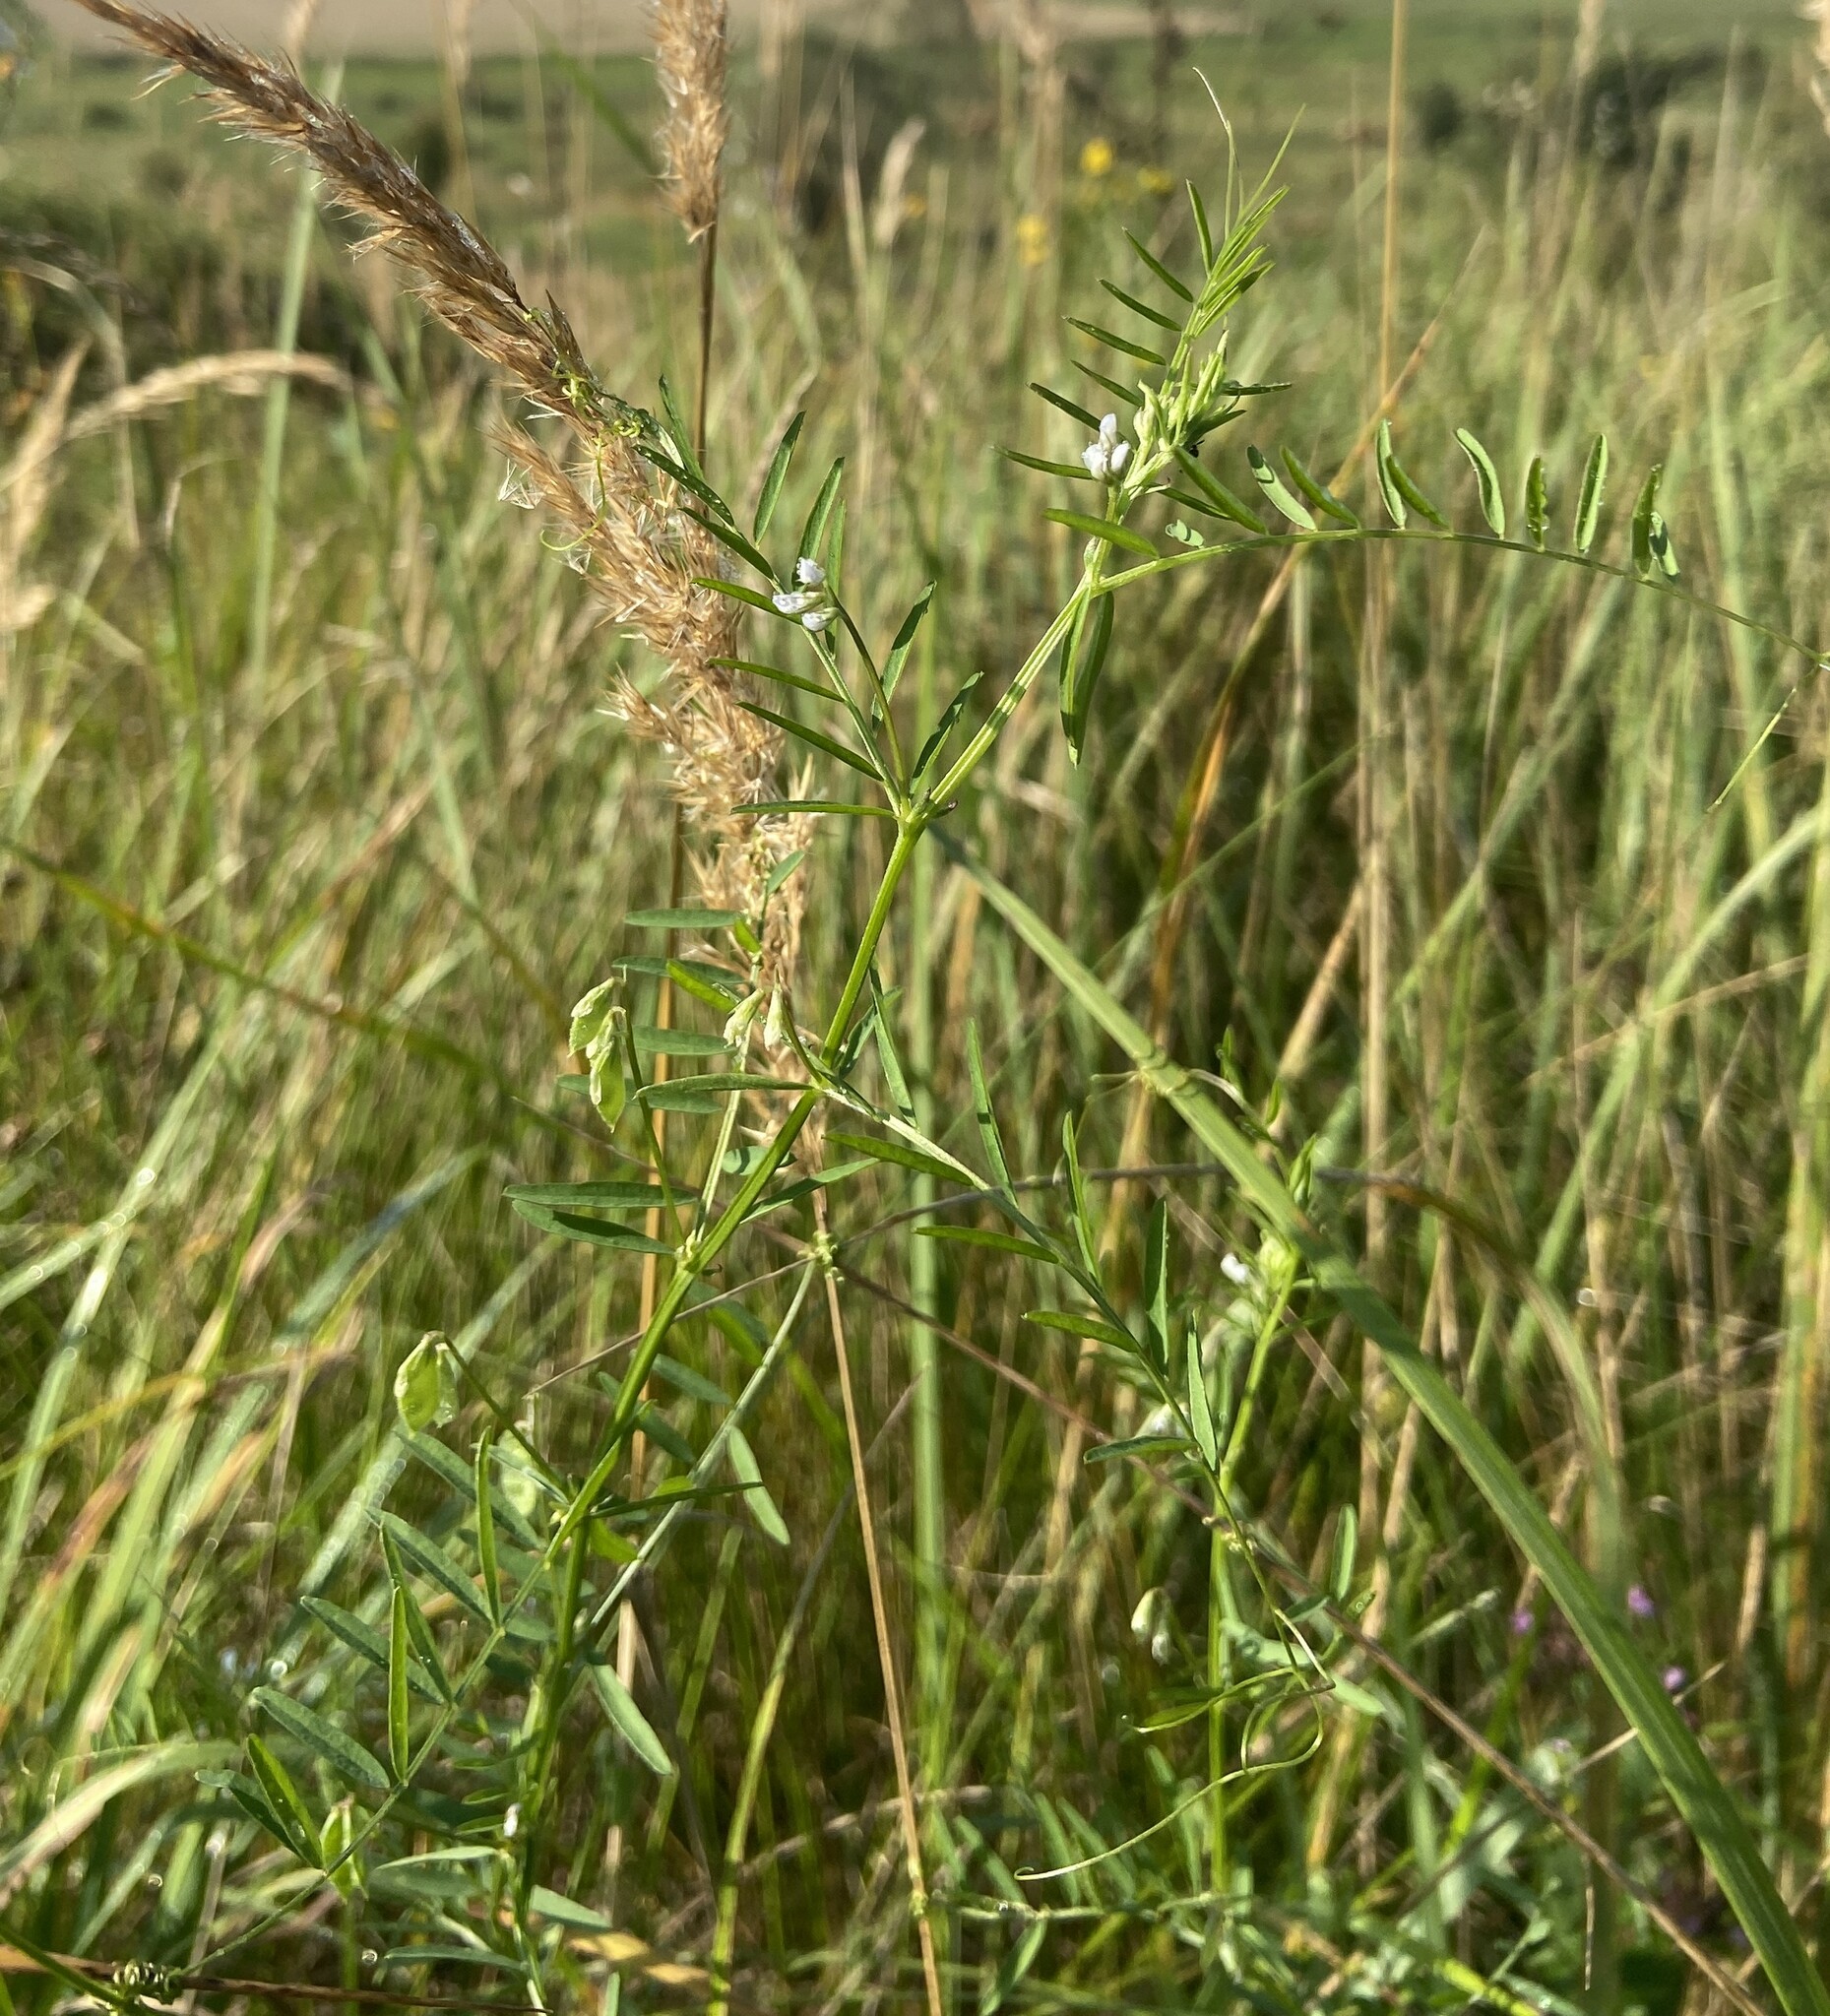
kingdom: Plantae
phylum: Tracheophyta
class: Magnoliopsida
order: Fabales
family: Fabaceae
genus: Vicia
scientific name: Vicia hirsuta
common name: Tiny vetch
